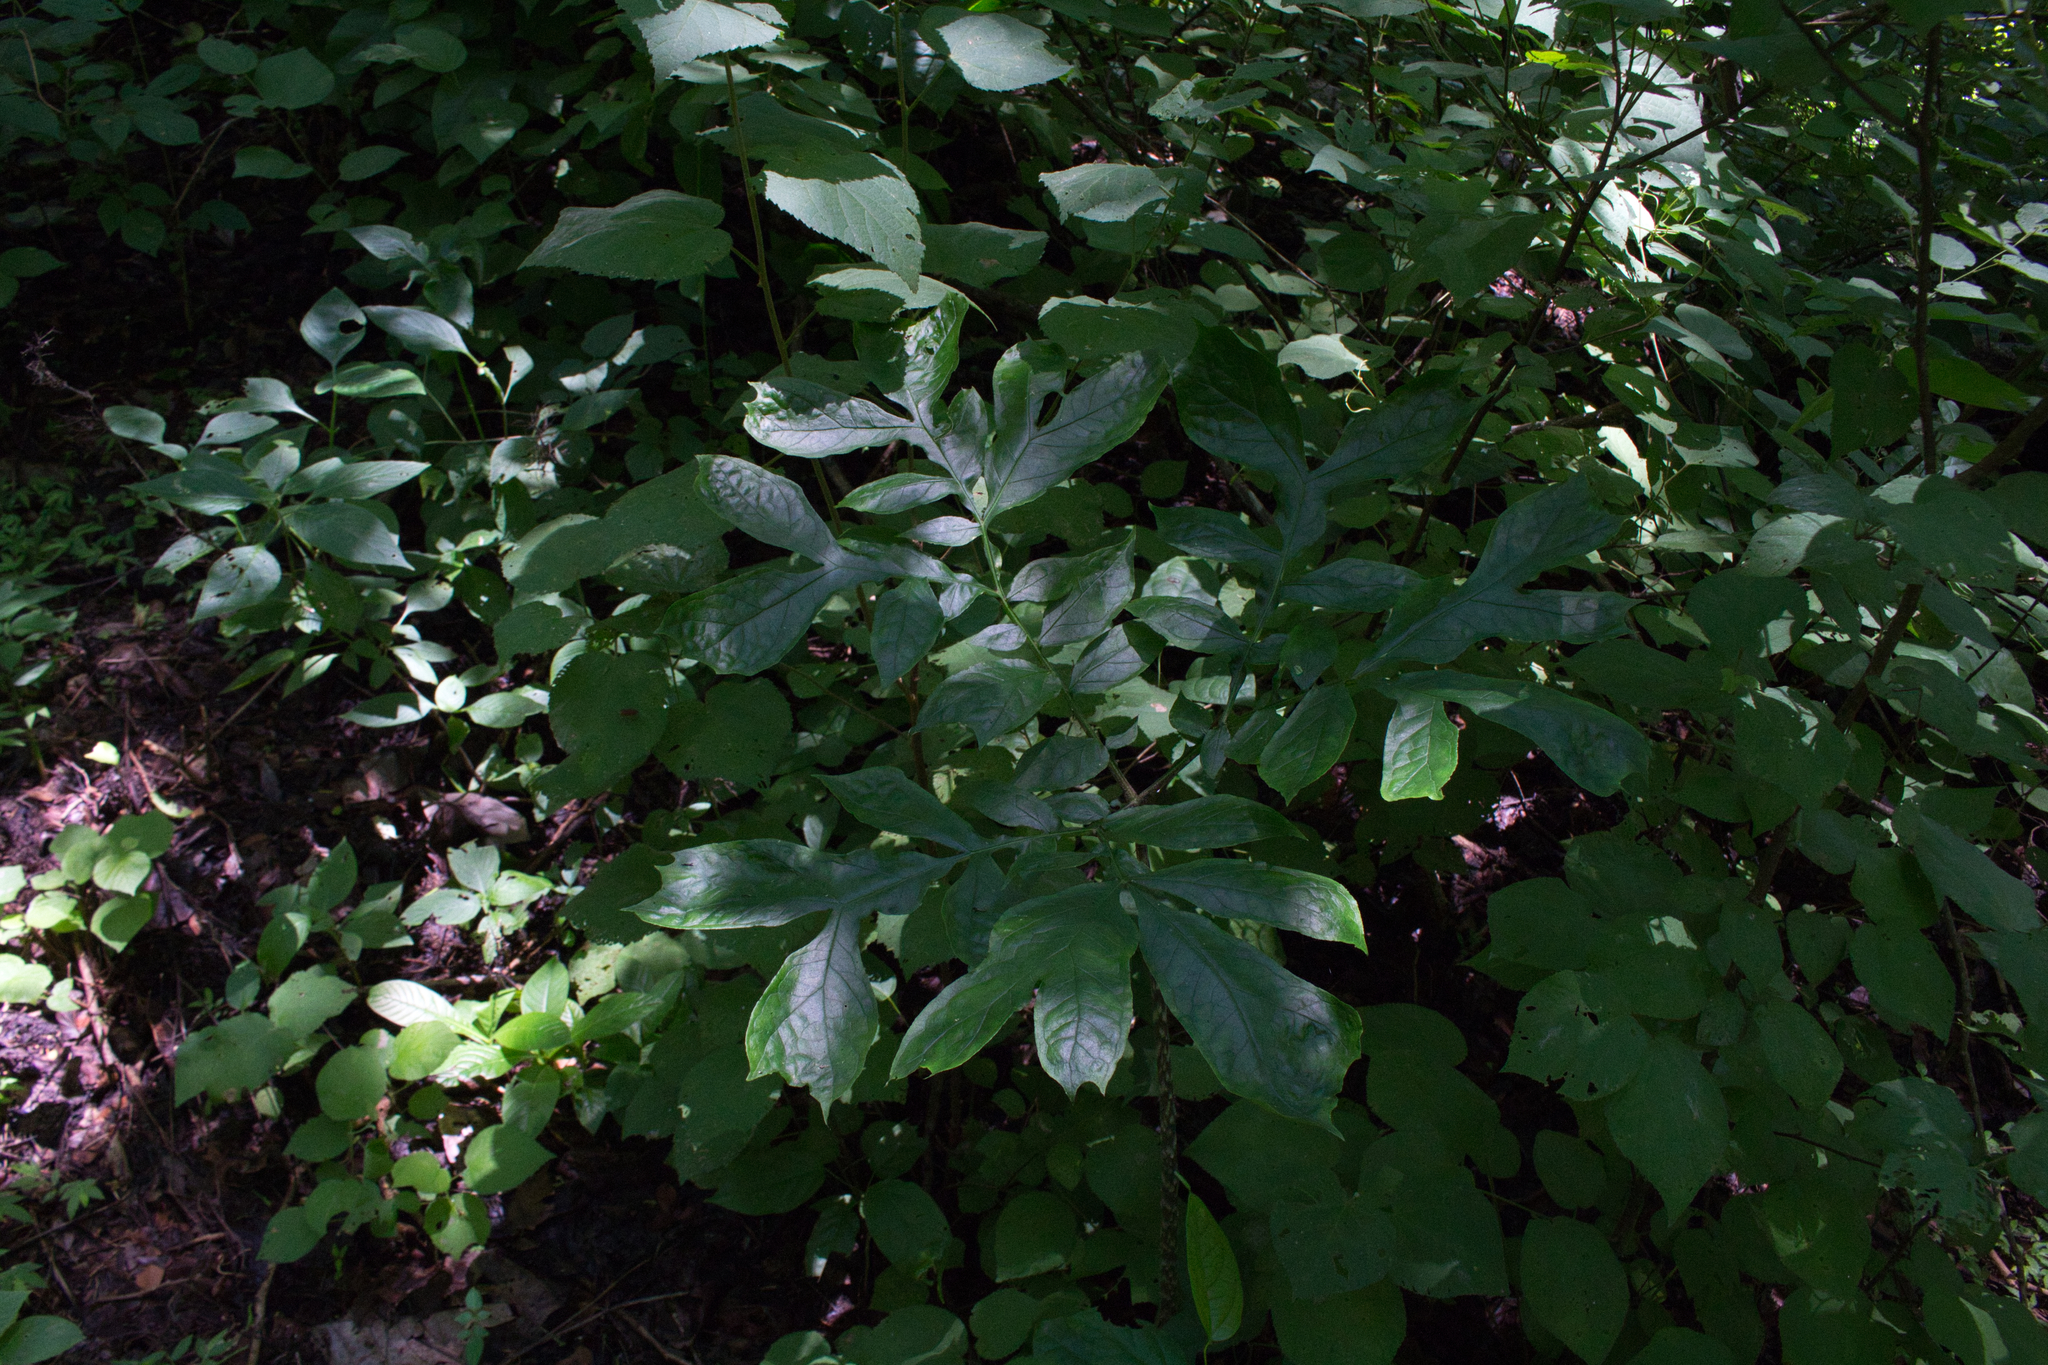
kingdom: Plantae
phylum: Tracheophyta
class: Liliopsida
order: Alismatales
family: Araceae
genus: Dracontium
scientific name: Dracontium soconuscum
